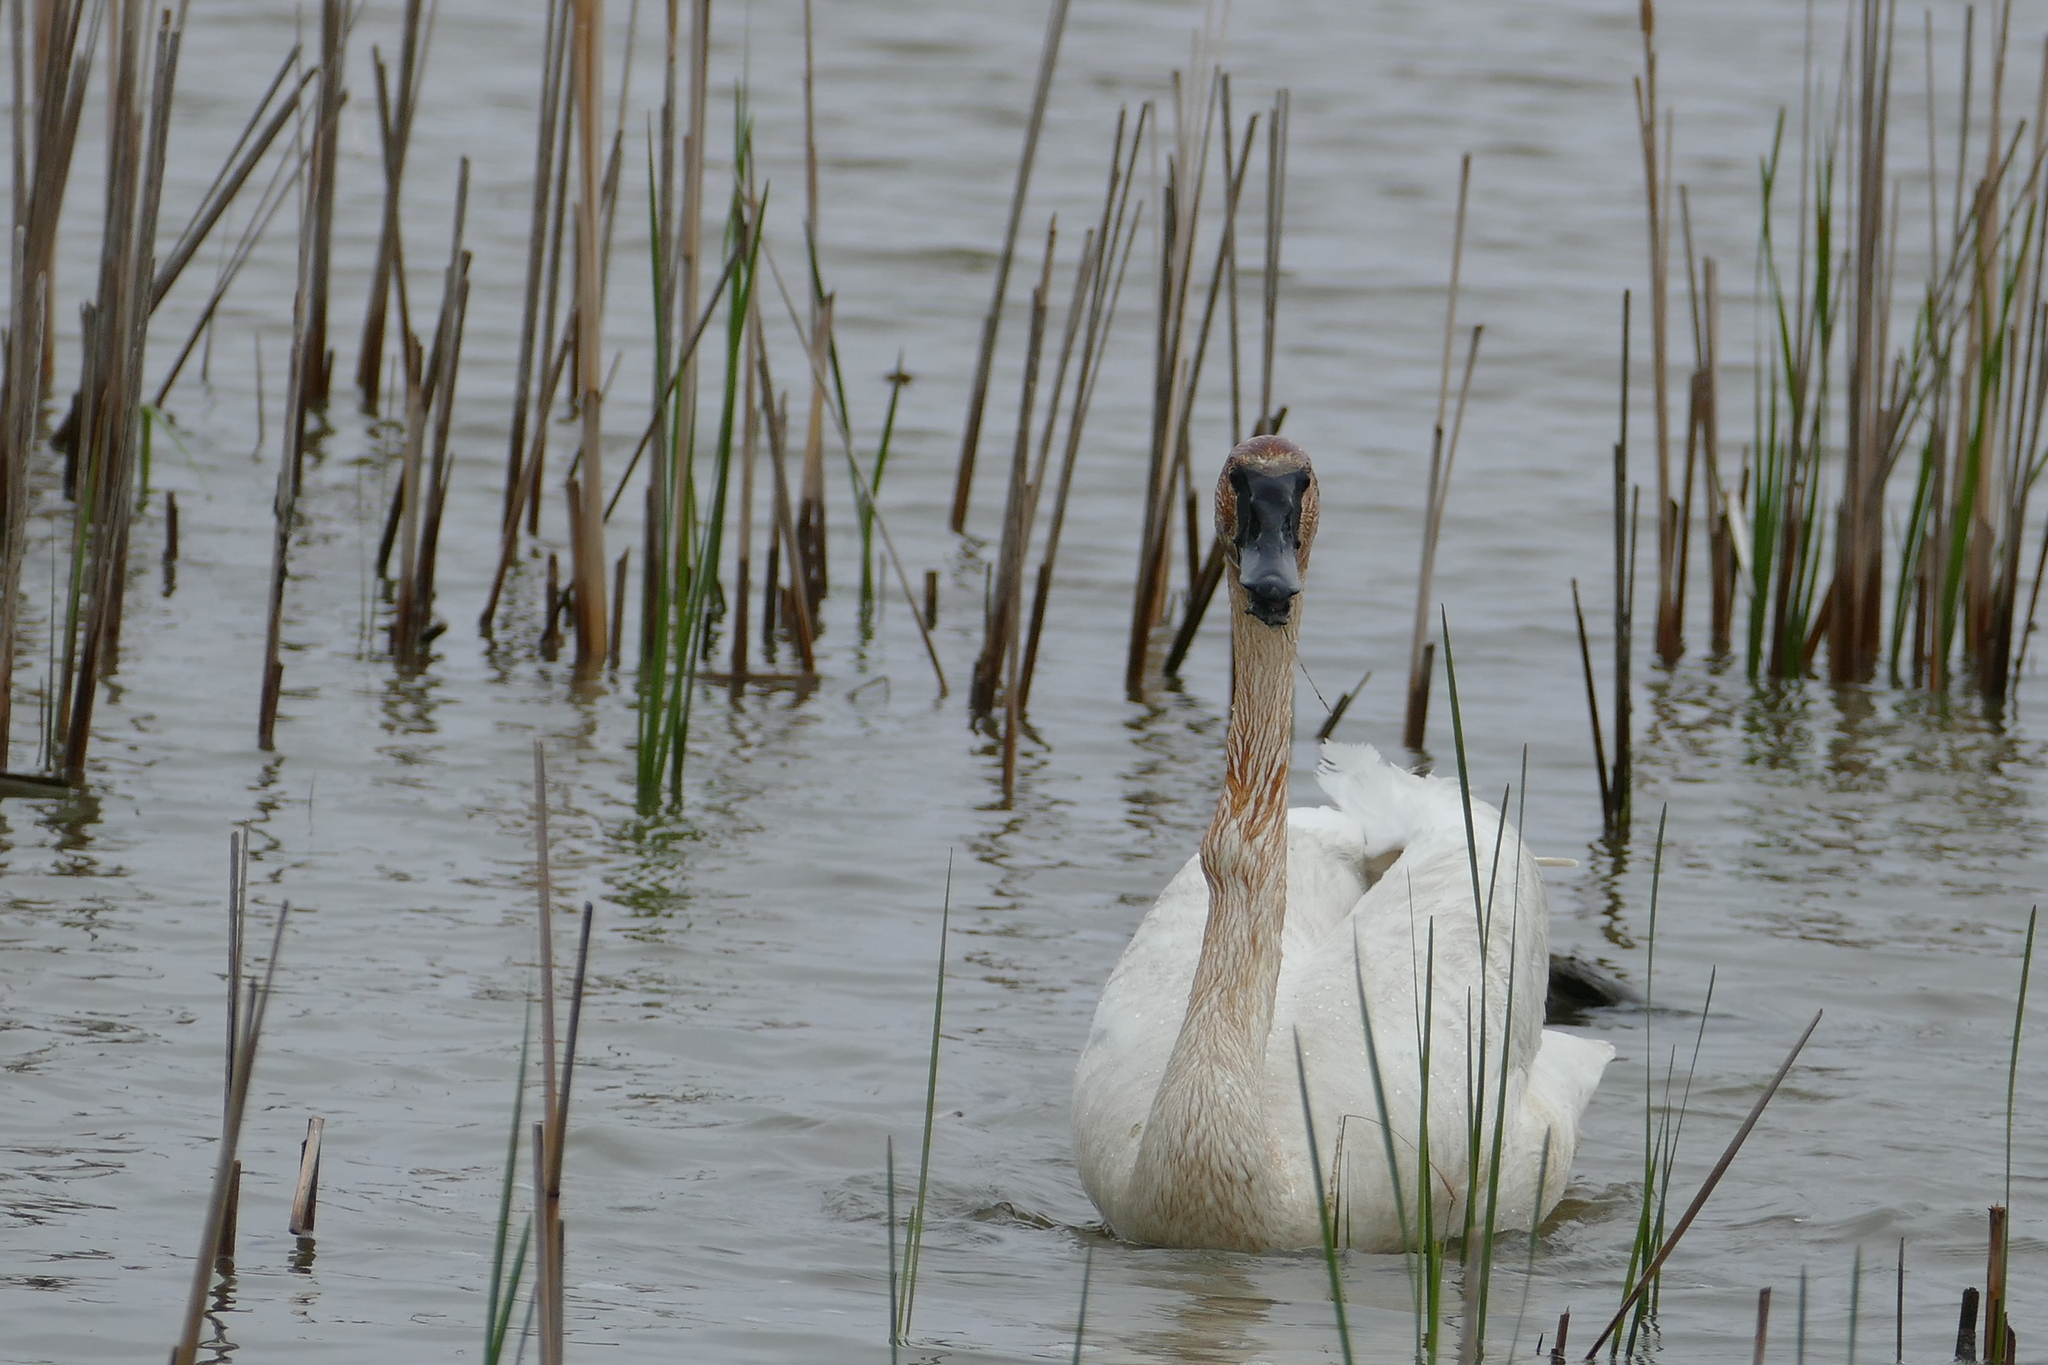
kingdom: Animalia
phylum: Chordata
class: Aves
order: Anseriformes
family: Anatidae
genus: Cygnus
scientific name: Cygnus buccinator
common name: Trumpeter swan
